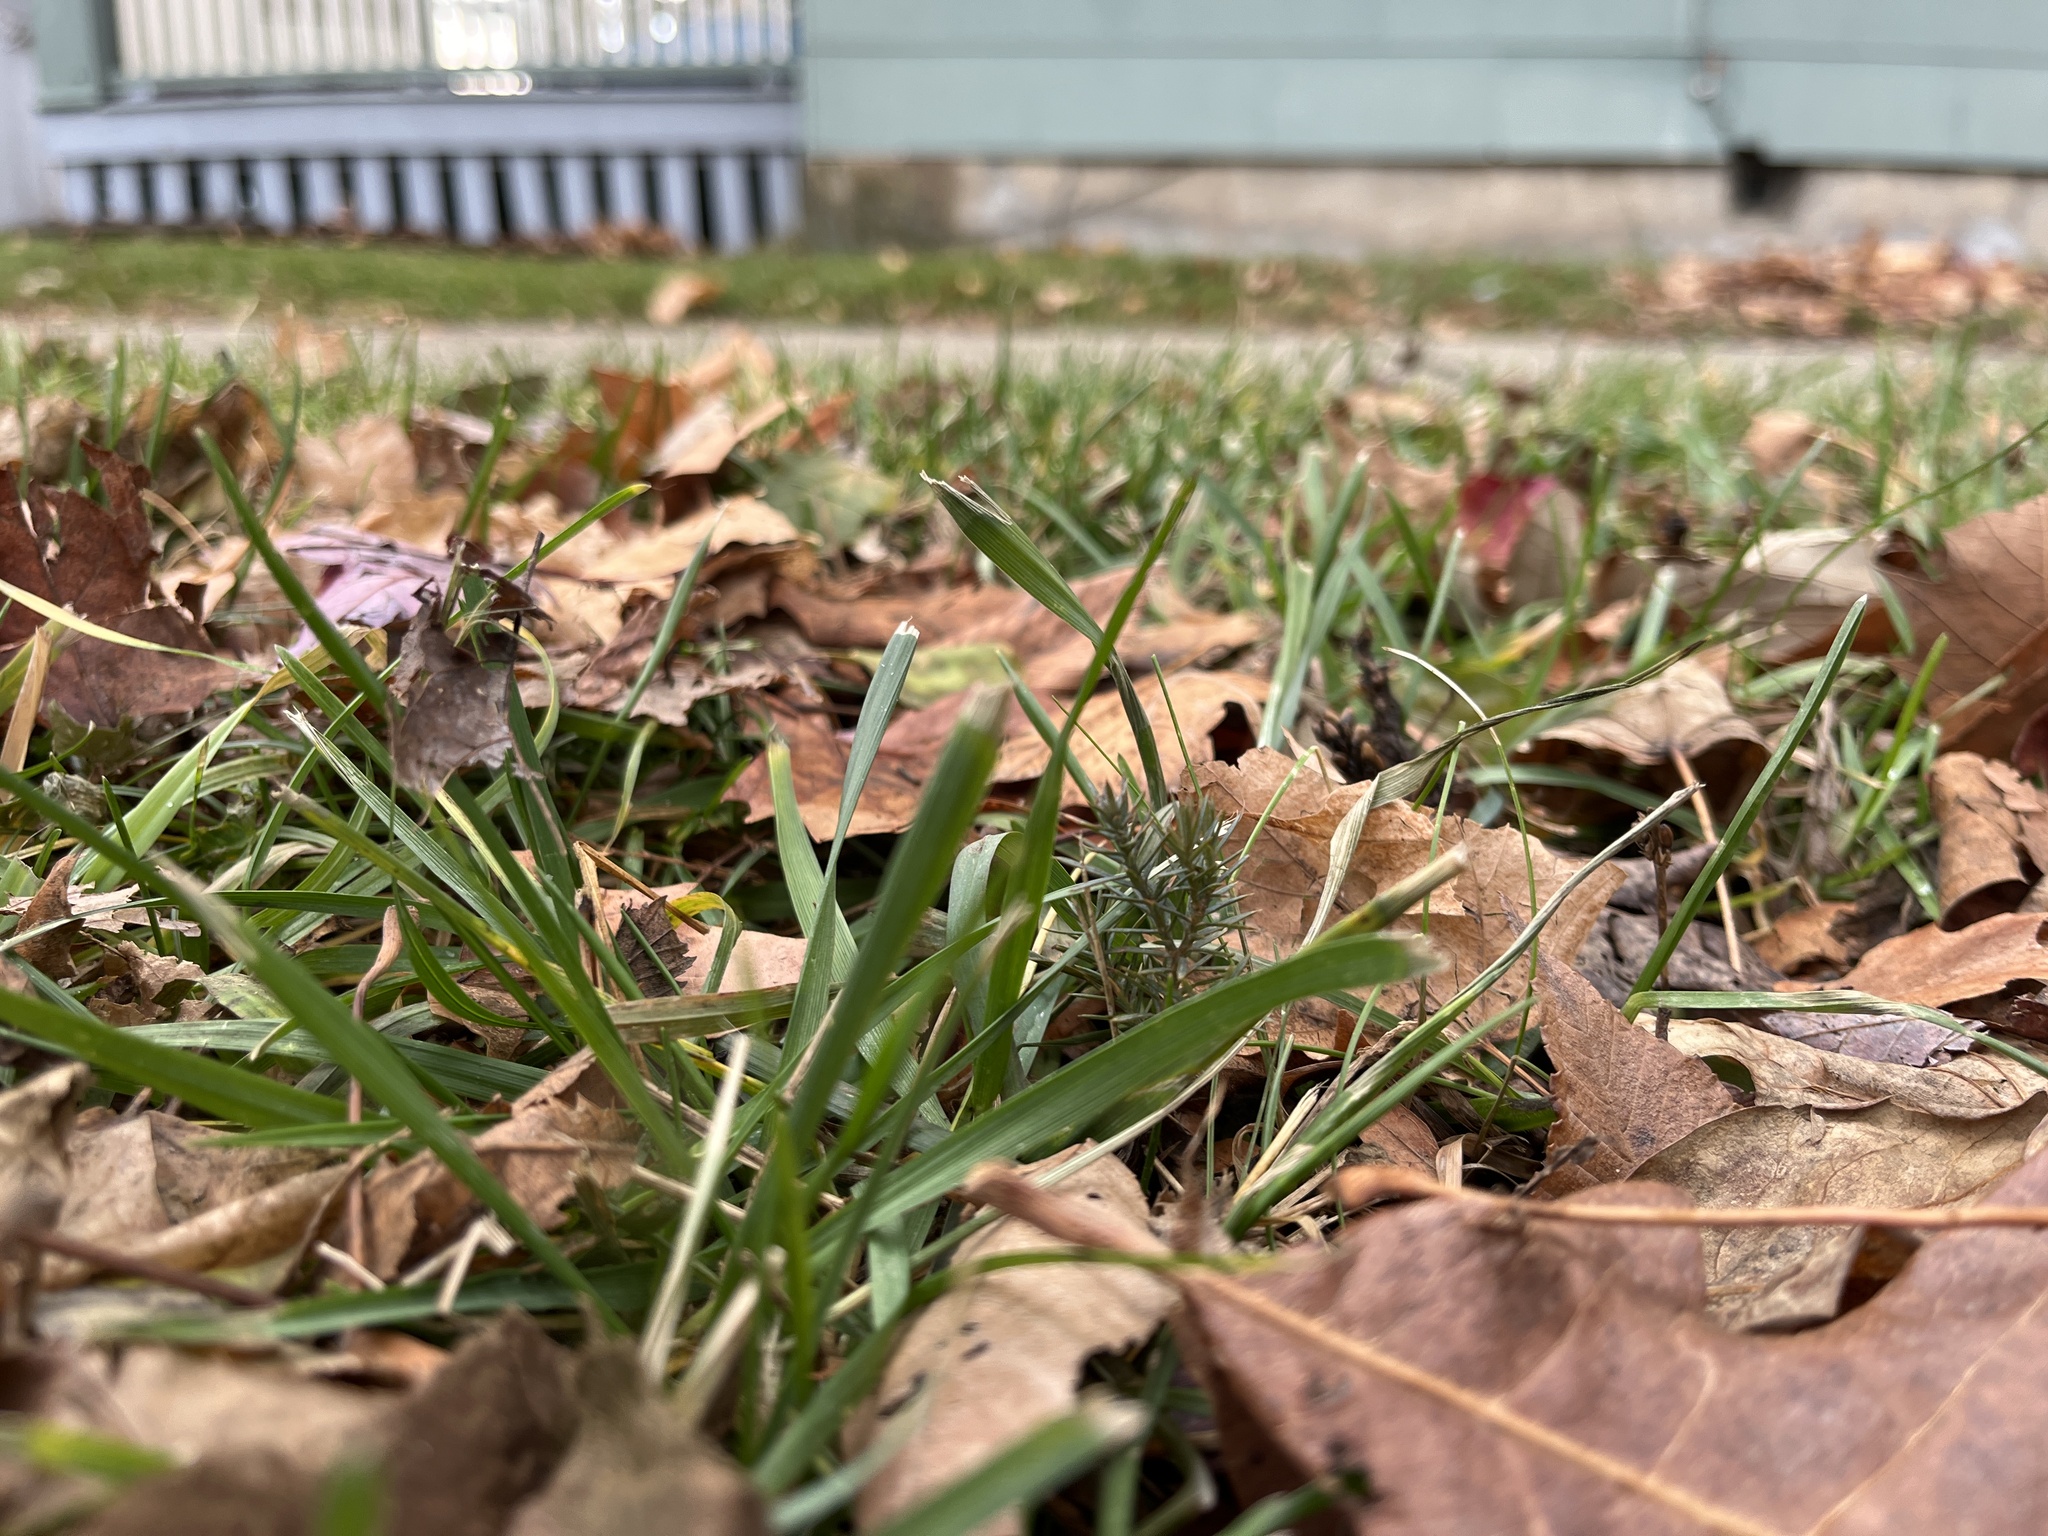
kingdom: Plantae
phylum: Tracheophyta
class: Pinopsida
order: Pinales
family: Cupressaceae
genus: Juniperus
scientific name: Juniperus communis
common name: Common juniper
